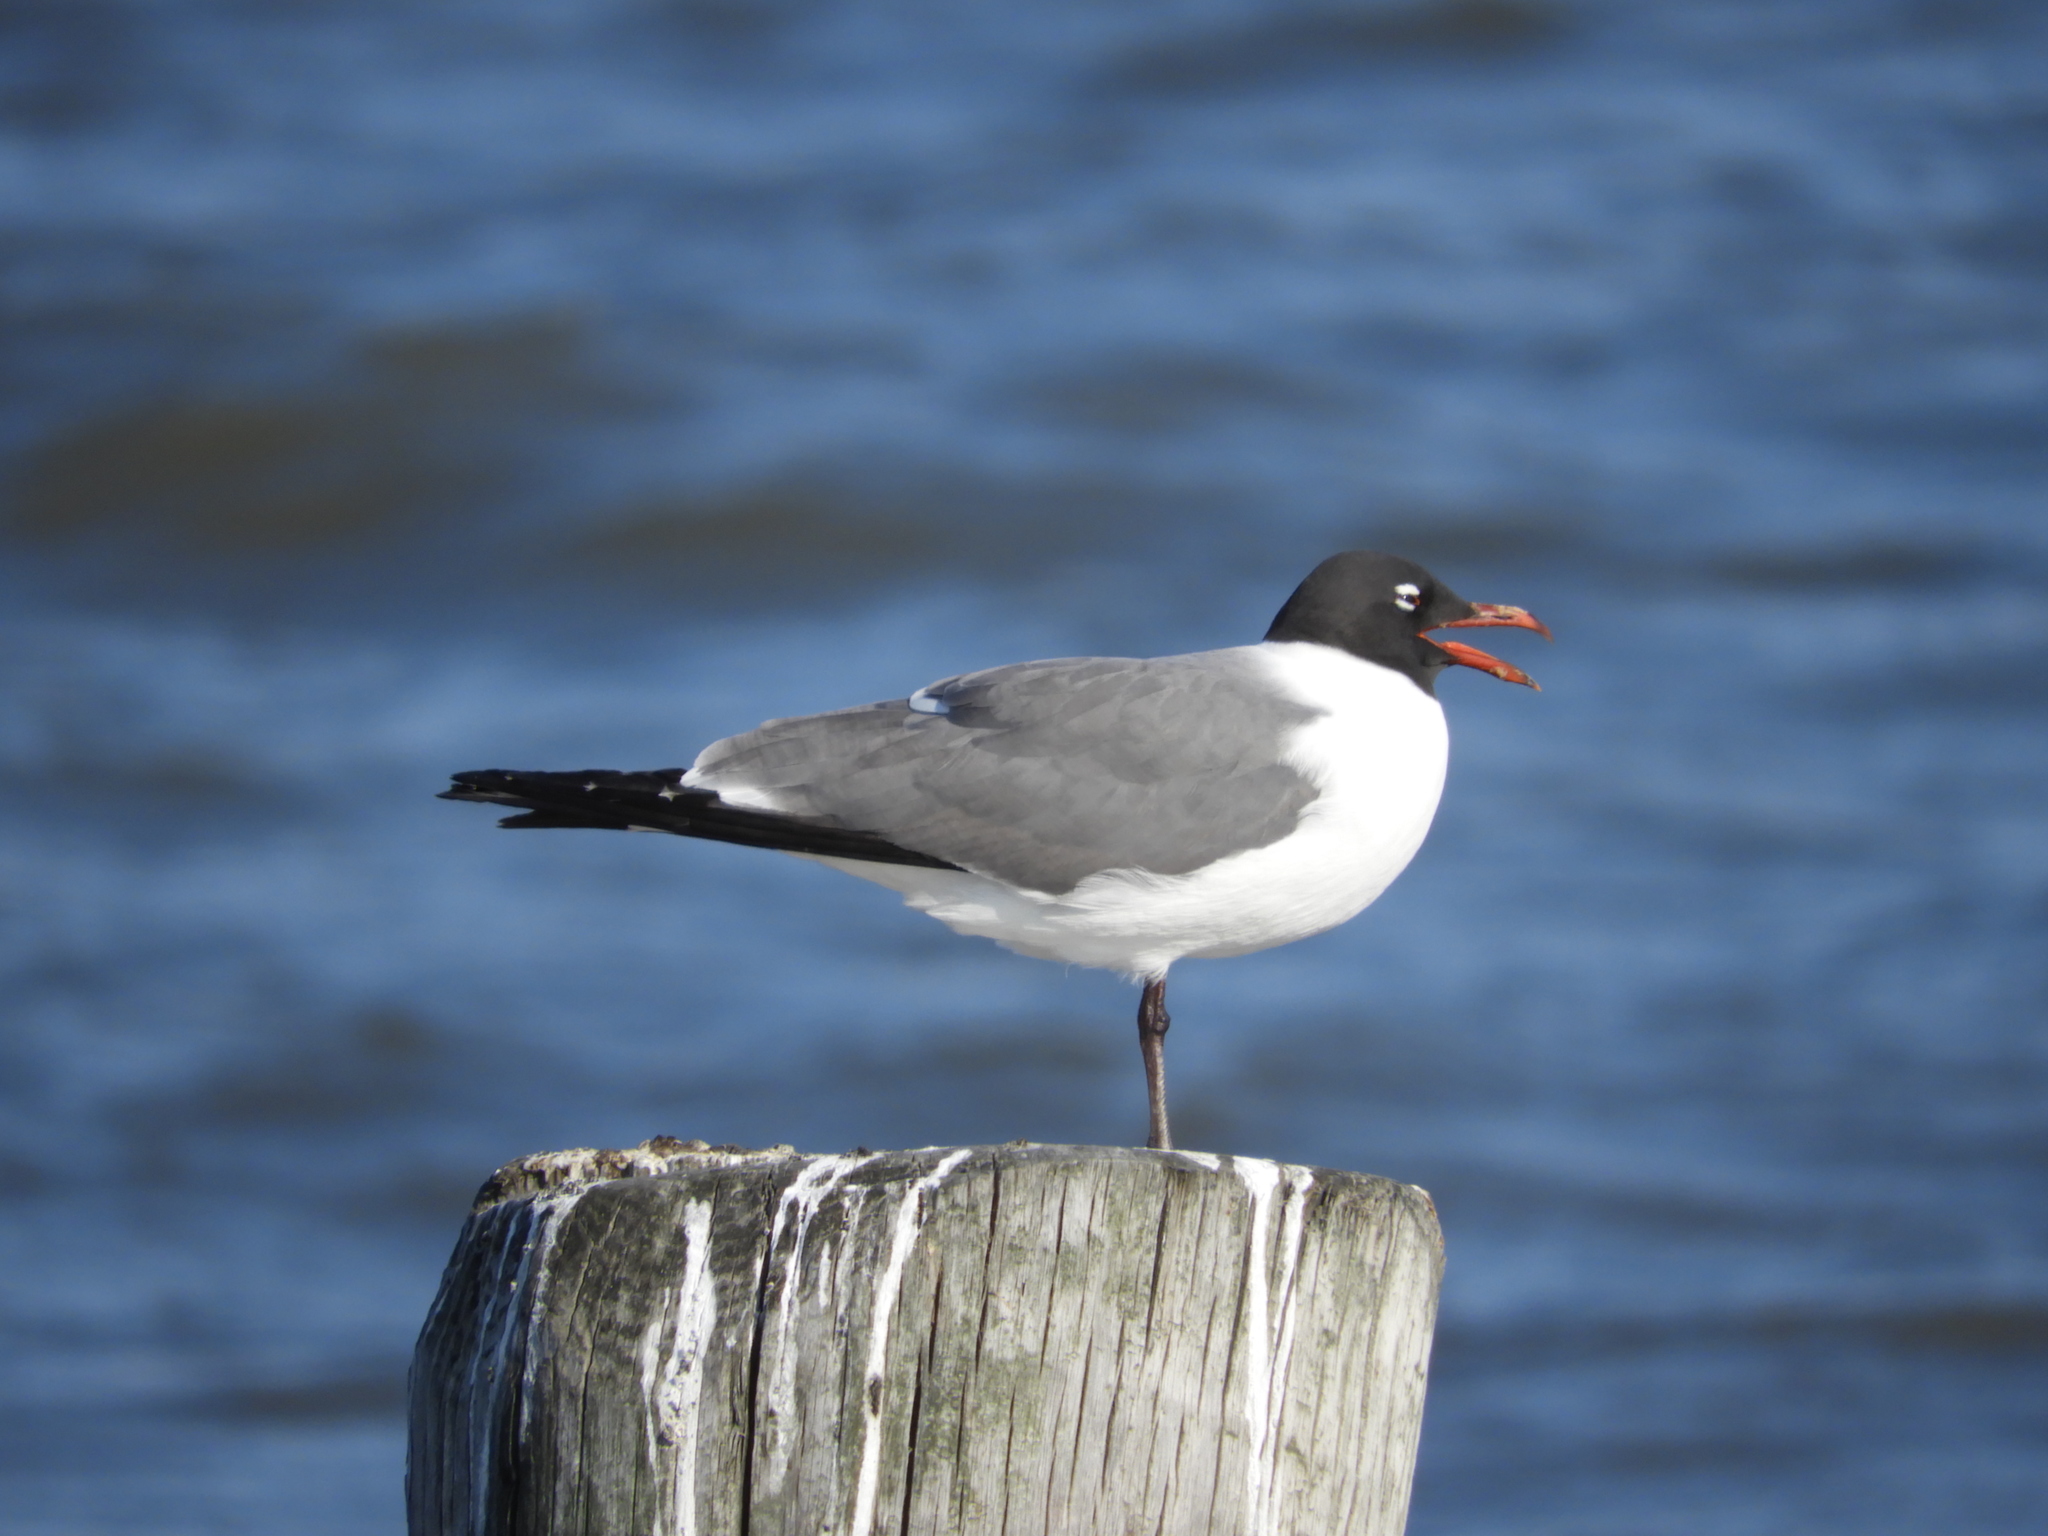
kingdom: Animalia
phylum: Chordata
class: Aves
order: Charadriiformes
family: Laridae
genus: Leucophaeus
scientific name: Leucophaeus atricilla
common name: Laughing gull
